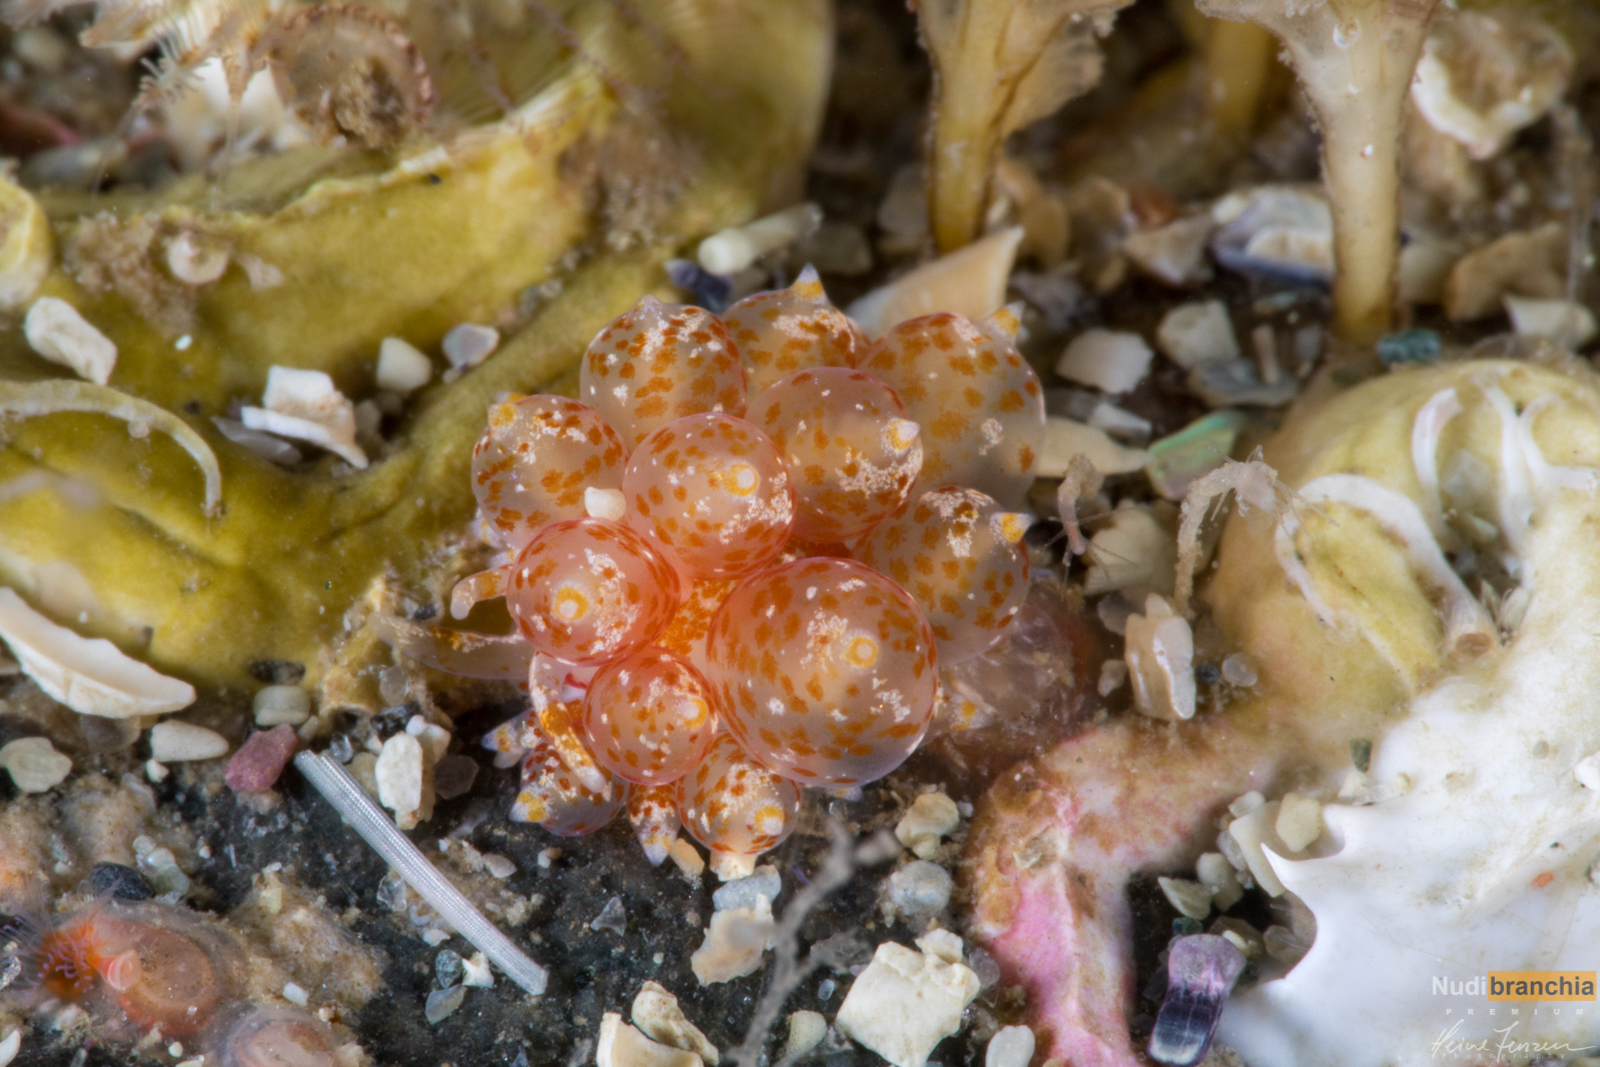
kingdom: Animalia
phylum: Mollusca
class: Gastropoda
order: Nudibranchia
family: Eubranchidae
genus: Amphorina
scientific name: Amphorina pallida
